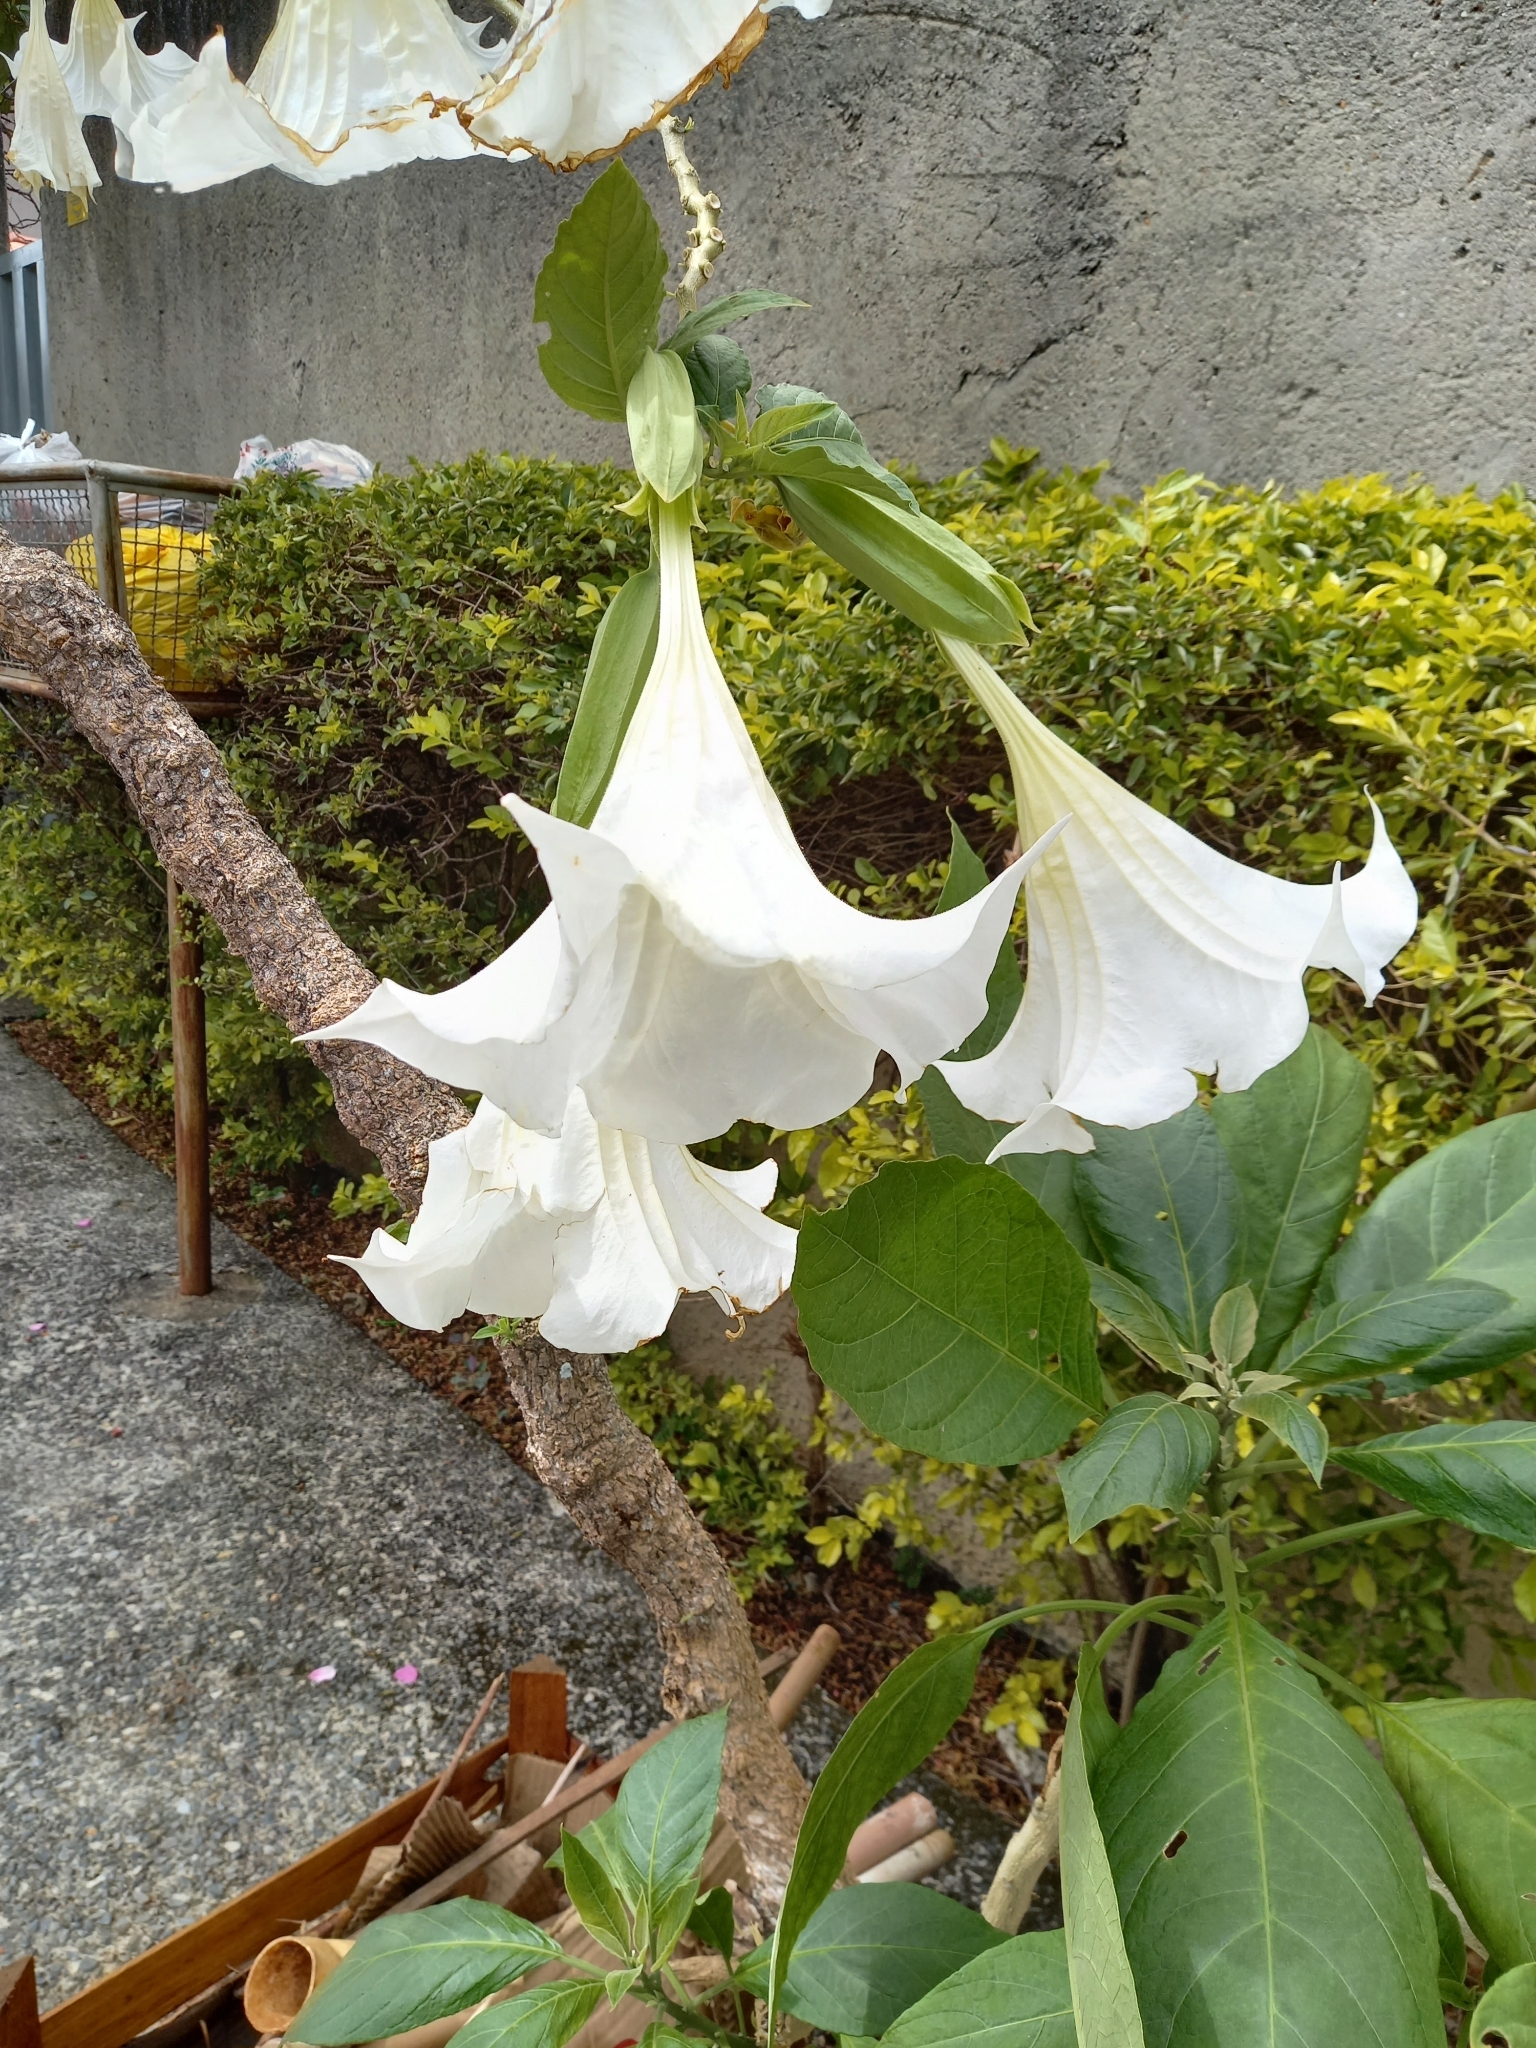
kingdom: Plantae
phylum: Tracheophyta
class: Magnoliopsida
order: Solanales
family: Solanaceae
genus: Brugmansia
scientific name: Brugmansia suaveolens
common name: Angel's tears
